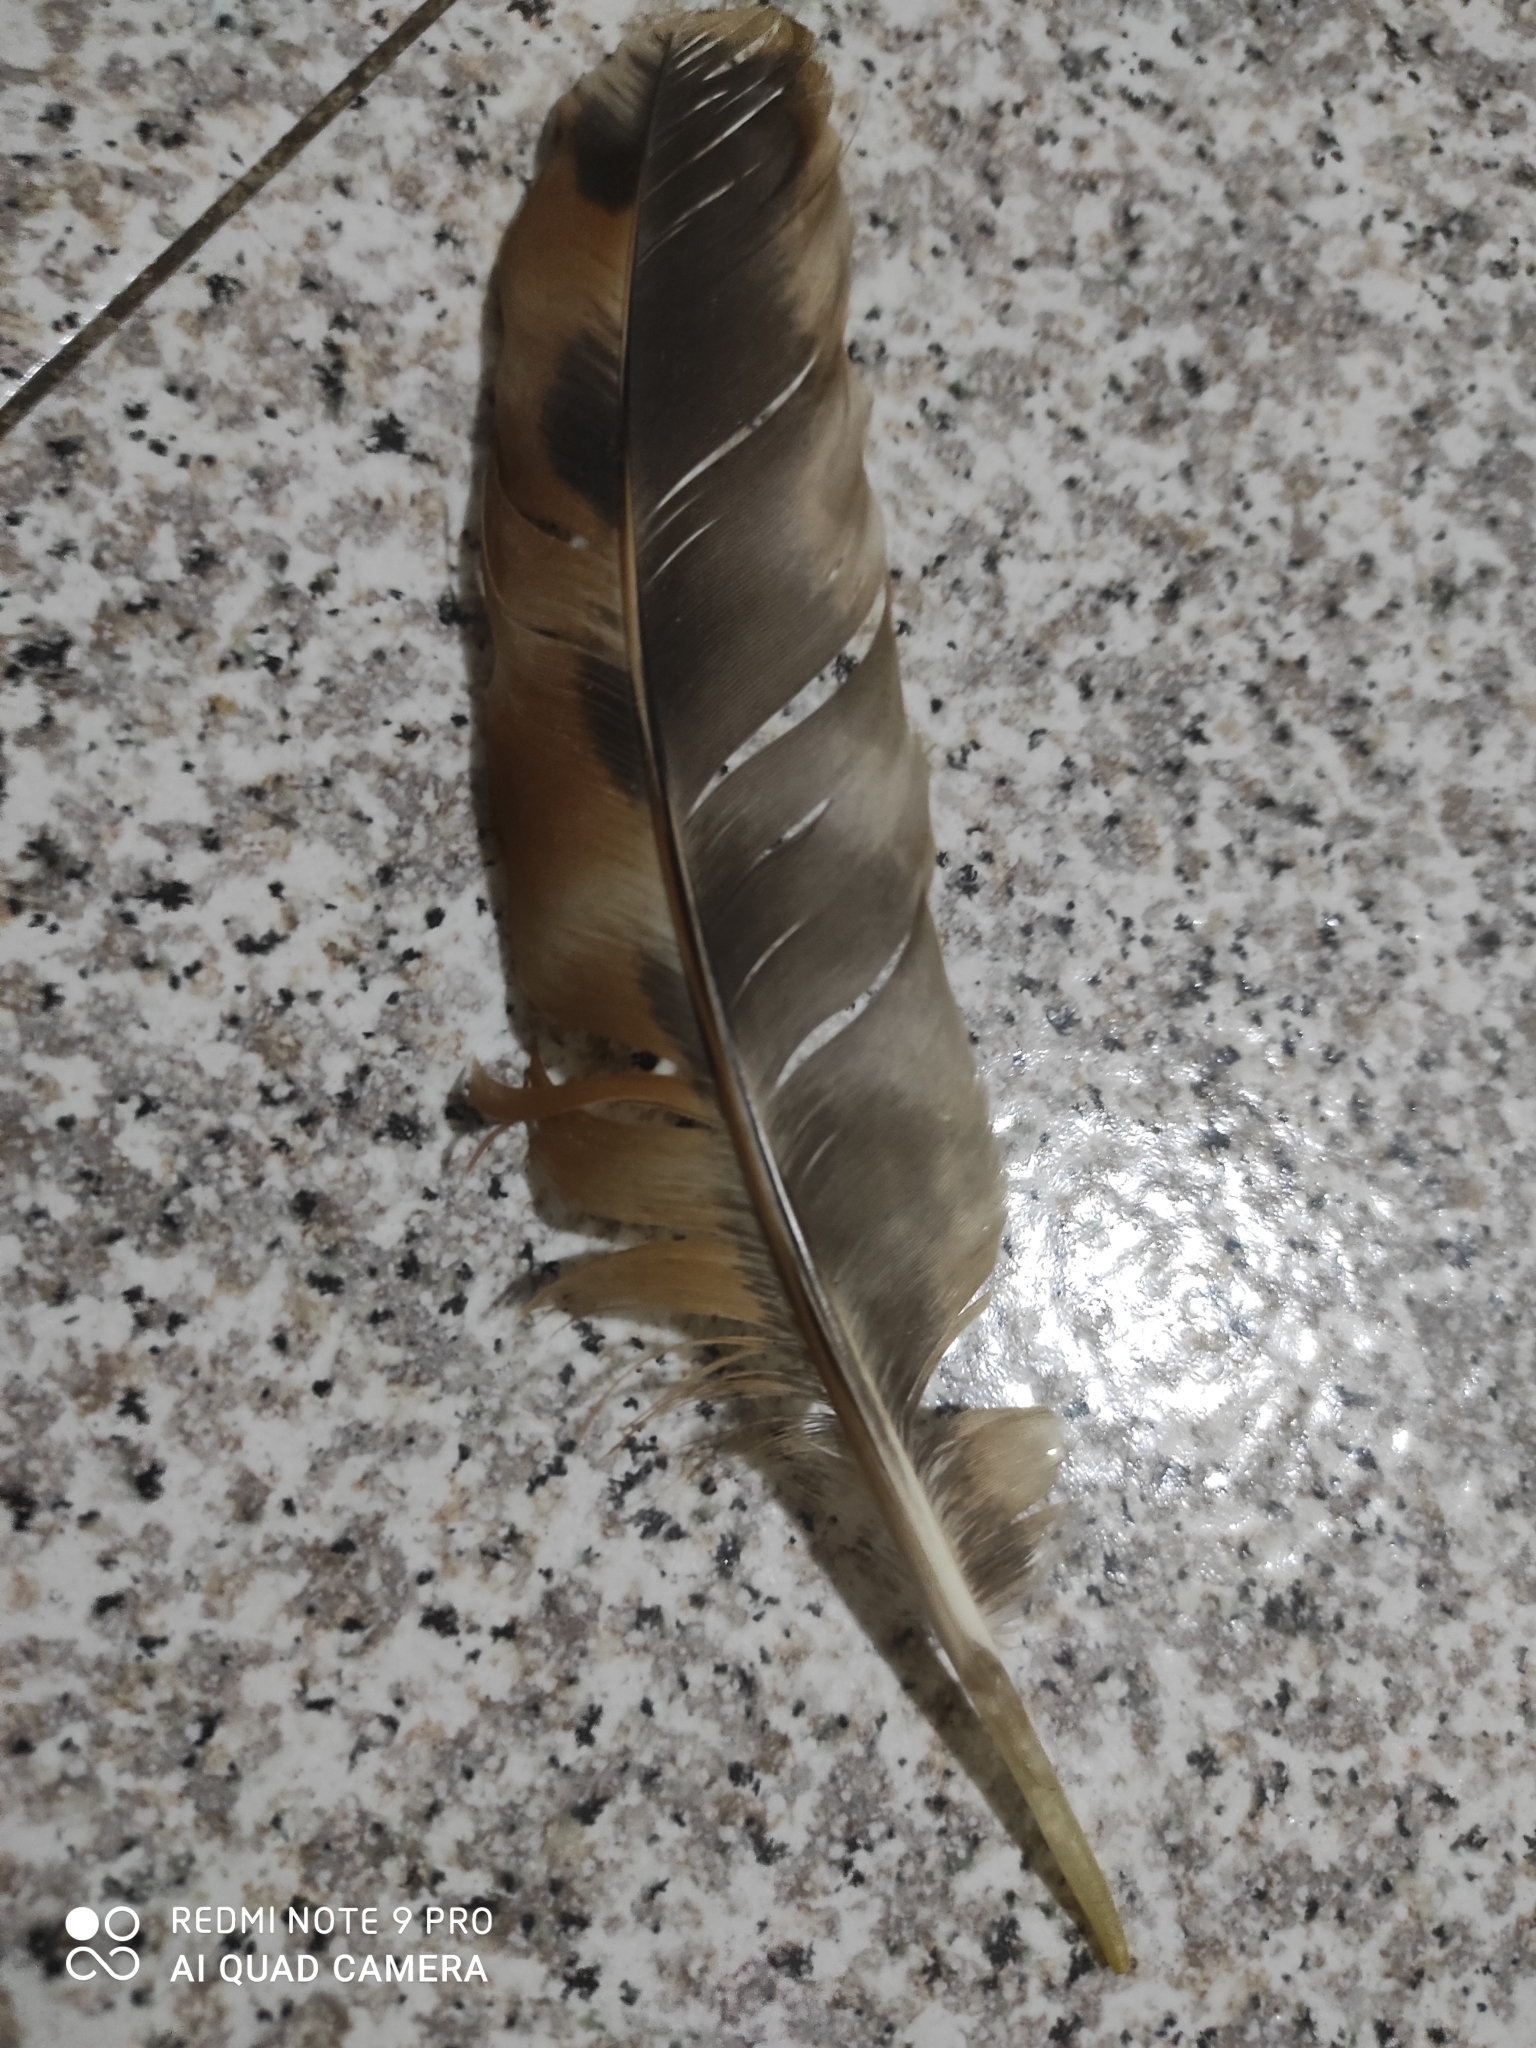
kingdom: Animalia
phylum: Chordata
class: Aves
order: Galliformes
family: Phasianidae
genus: Gallus
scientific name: Gallus gallus
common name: Red junglefowl
